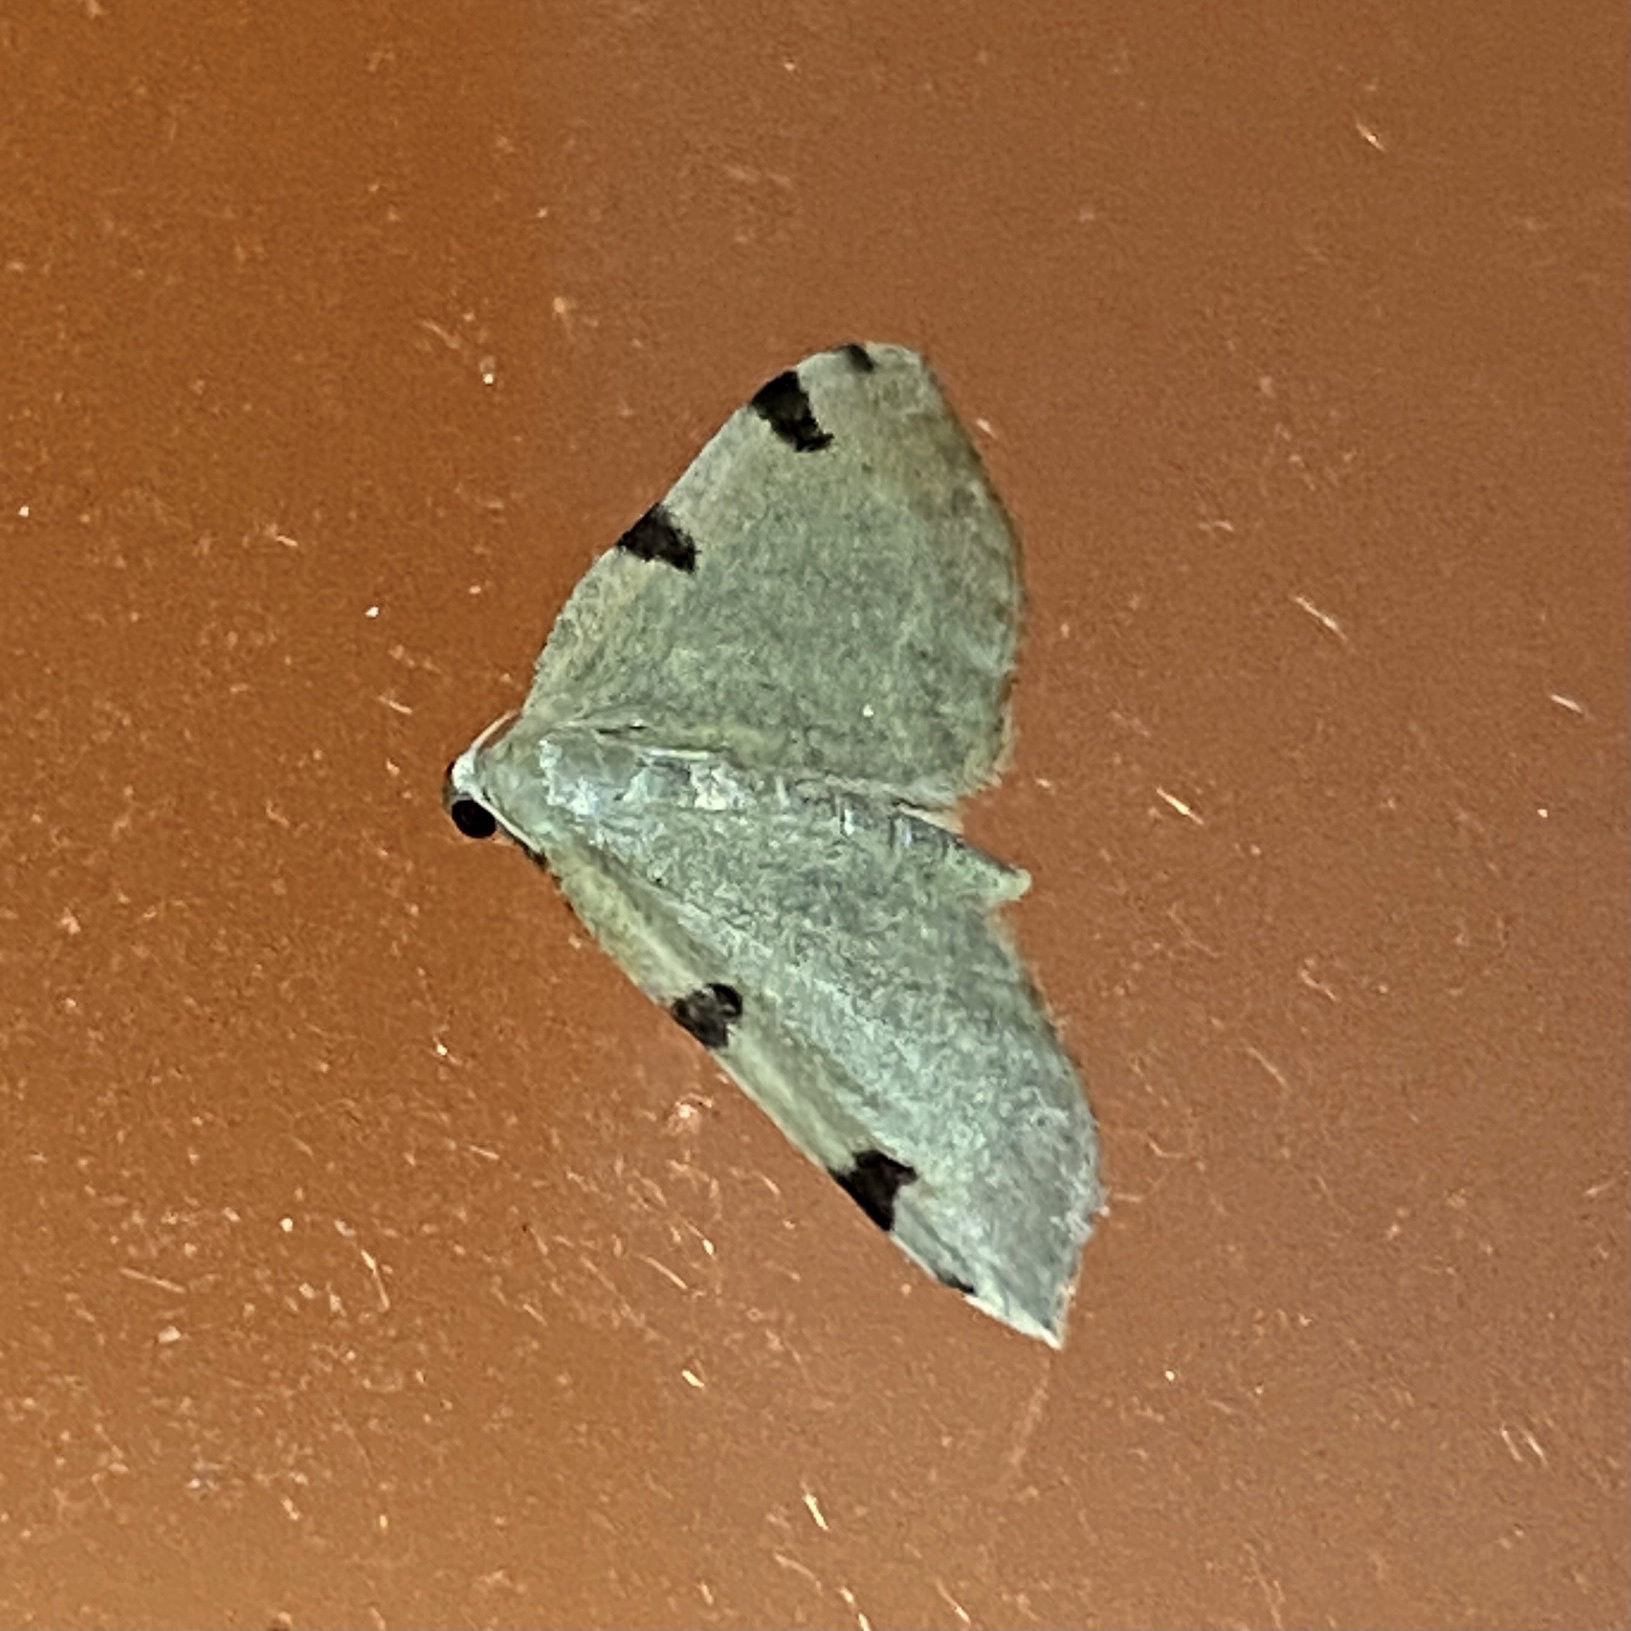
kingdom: Animalia
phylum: Arthropoda
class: Insecta
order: Lepidoptera
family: Geometridae
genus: Heterophleps
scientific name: Heterophleps triguttaria
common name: Three-spotted fillip
